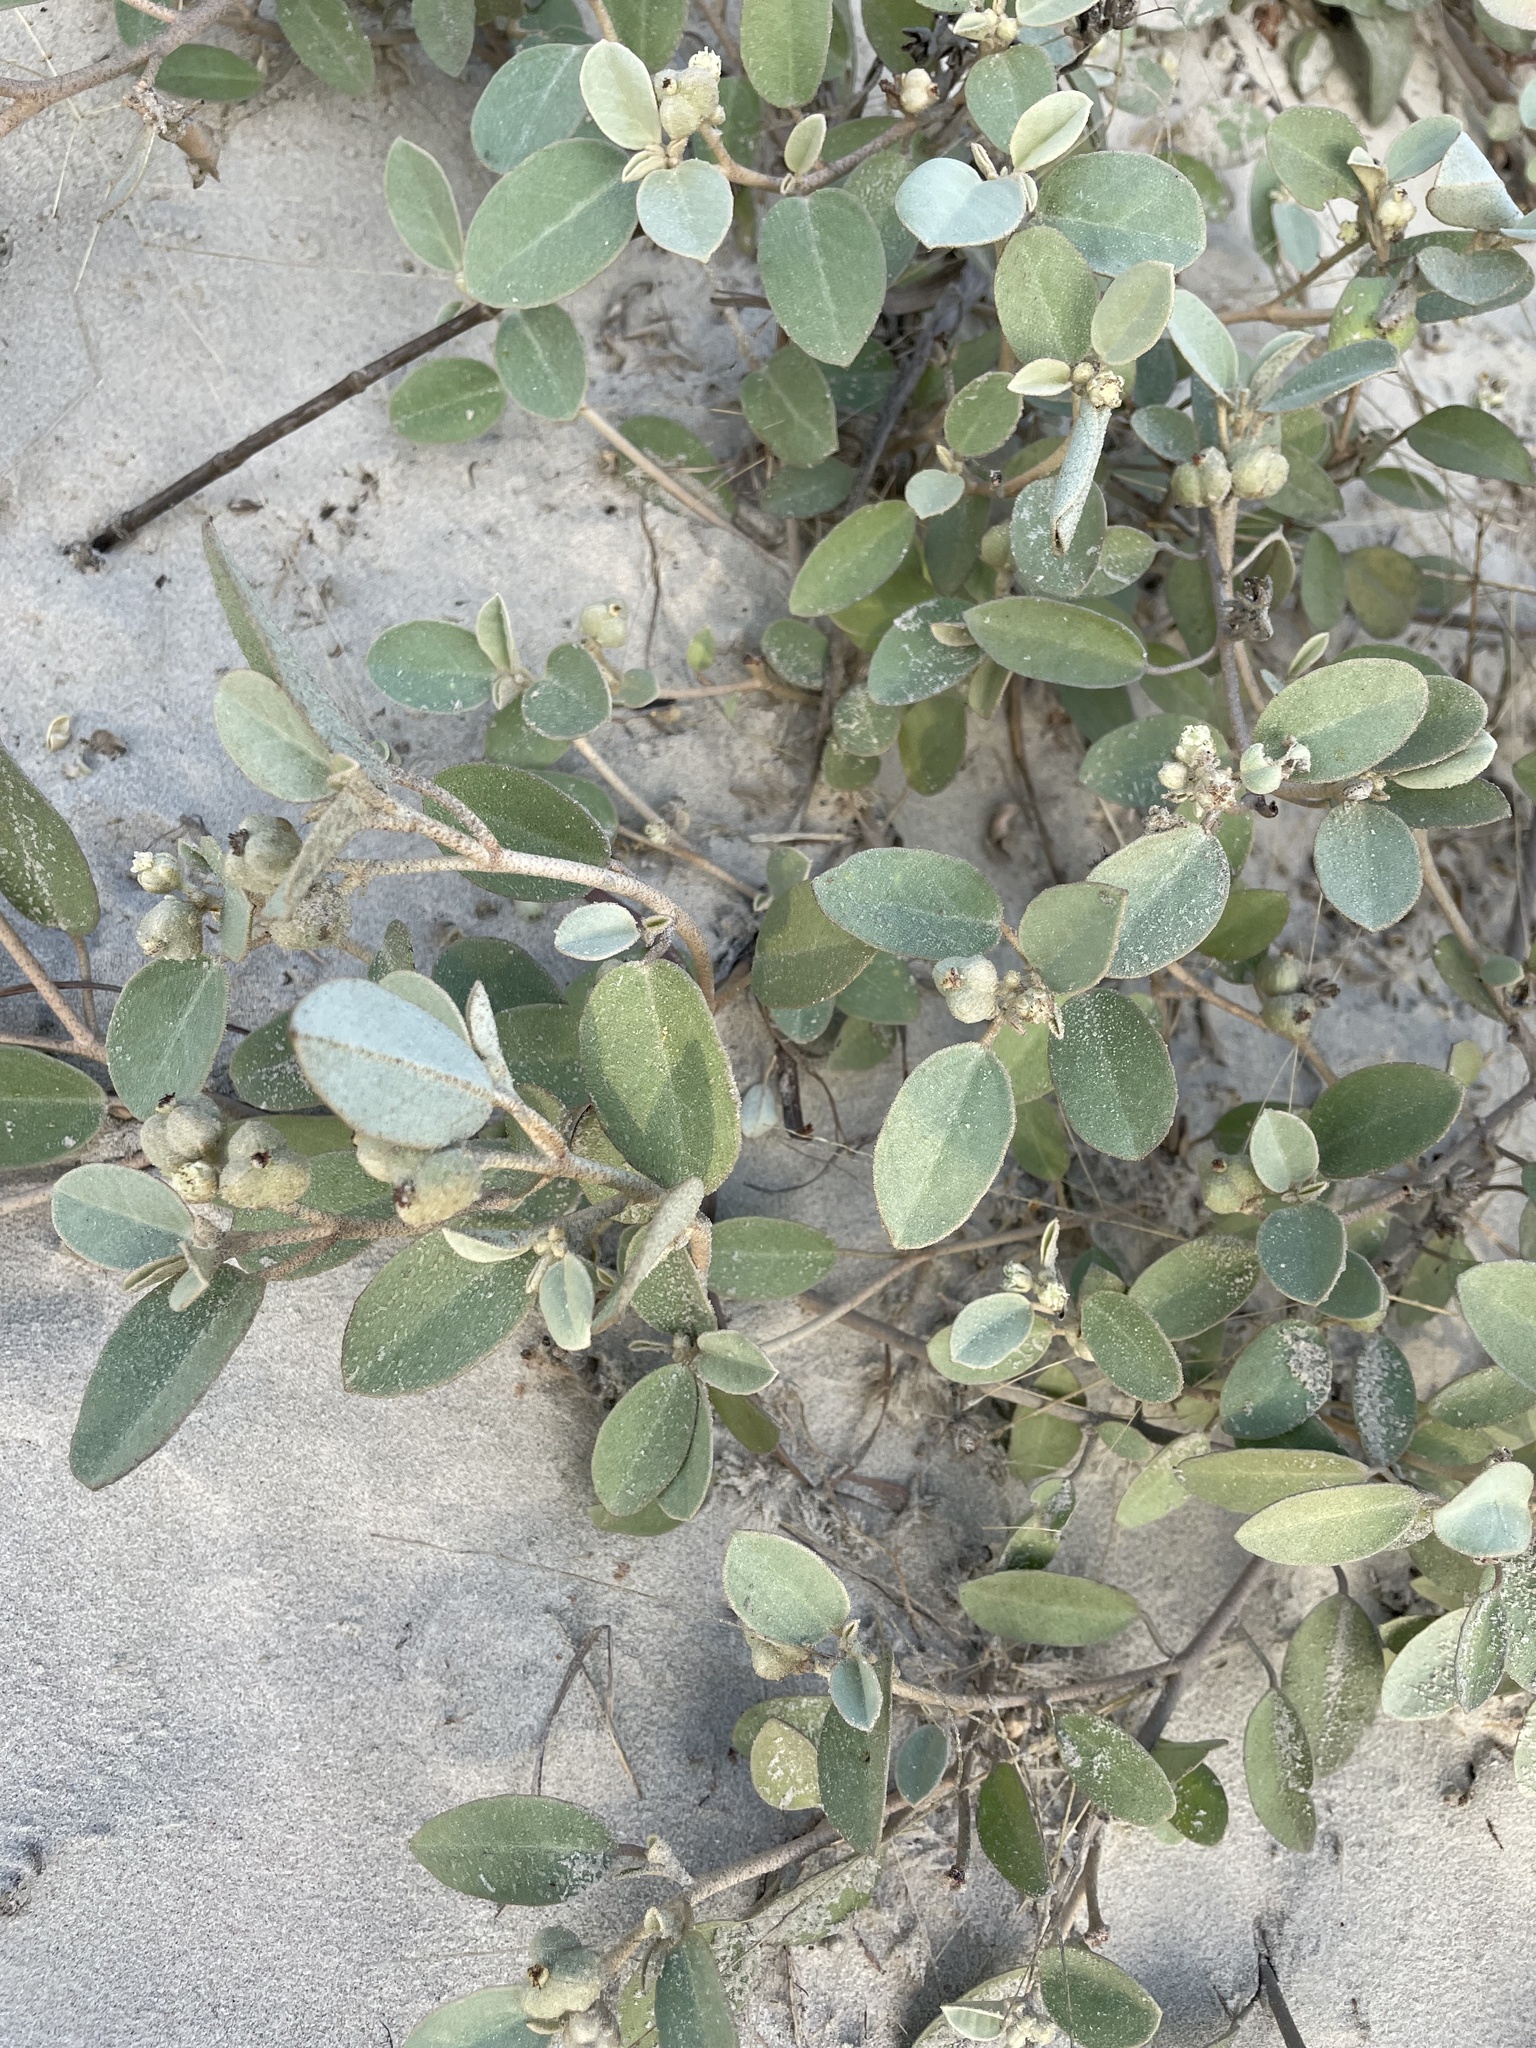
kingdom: Plantae
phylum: Tracheophyta
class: Magnoliopsida
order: Malpighiales
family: Euphorbiaceae
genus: Croton
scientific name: Croton punctatus
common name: Beach-tea
